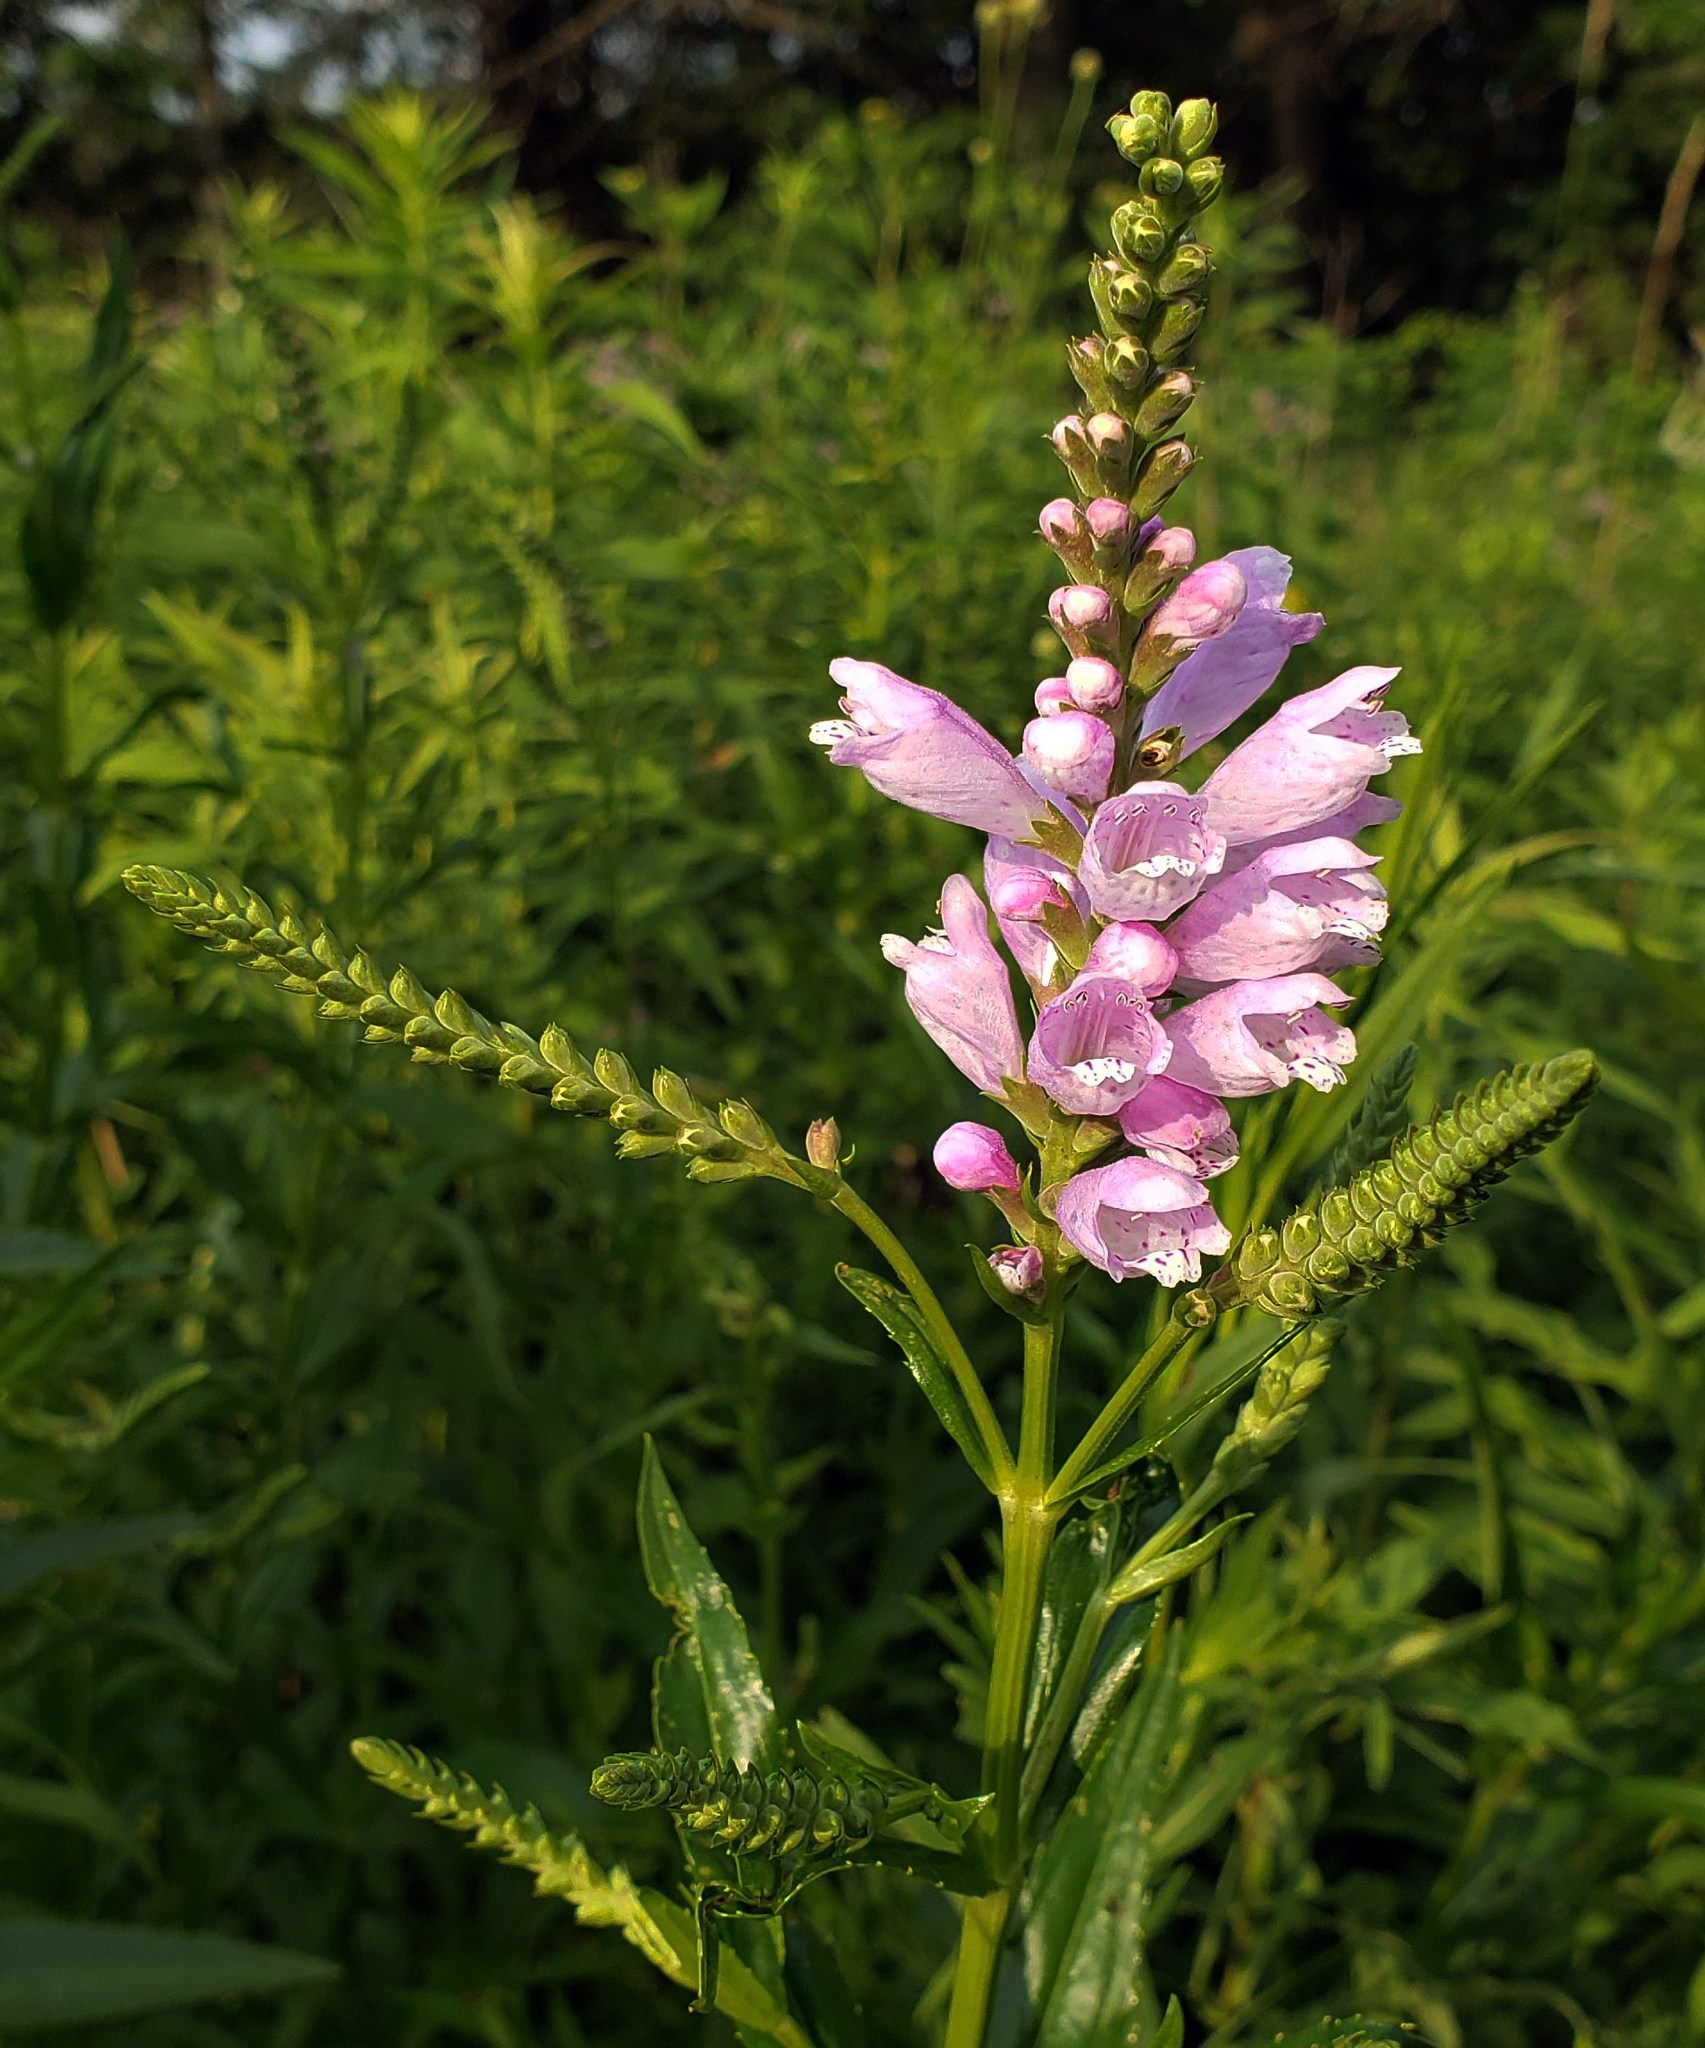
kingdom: Plantae
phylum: Tracheophyta
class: Magnoliopsida
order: Lamiales
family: Lamiaceae
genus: Physostegia
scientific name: Physostegia virginiana
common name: Obedient-plant
